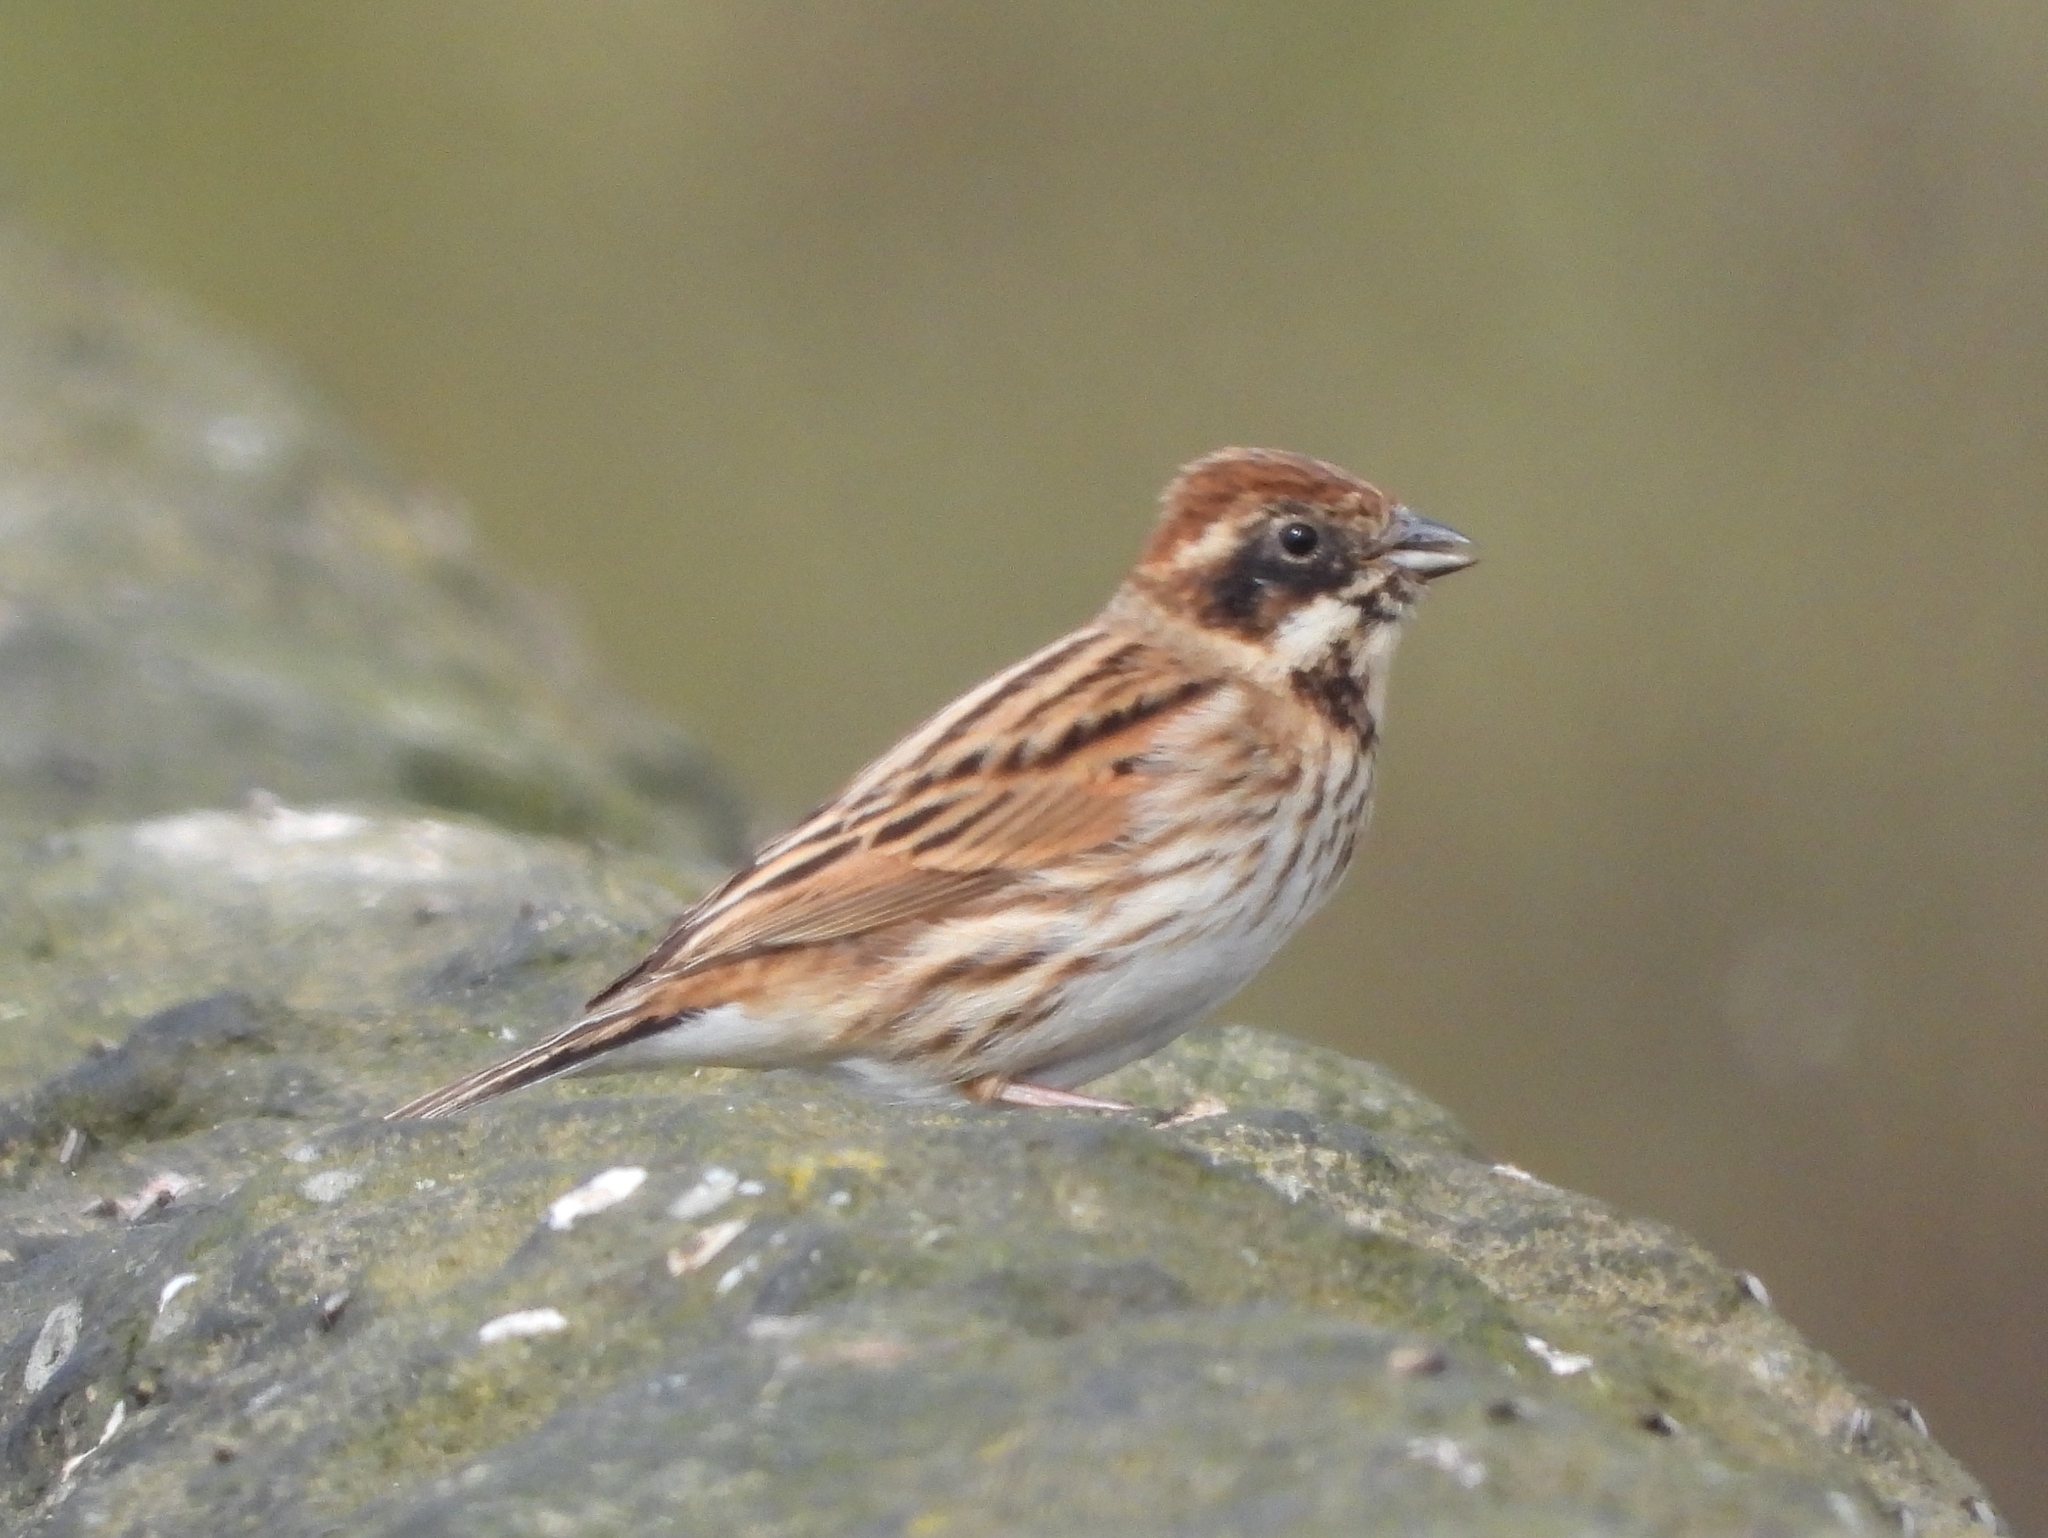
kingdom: Animalia
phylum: Chordata
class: Aves
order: Passeriformes
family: Emberizidae
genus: Emberiza
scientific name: Emberiza schoeniclus
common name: Reed bunting
